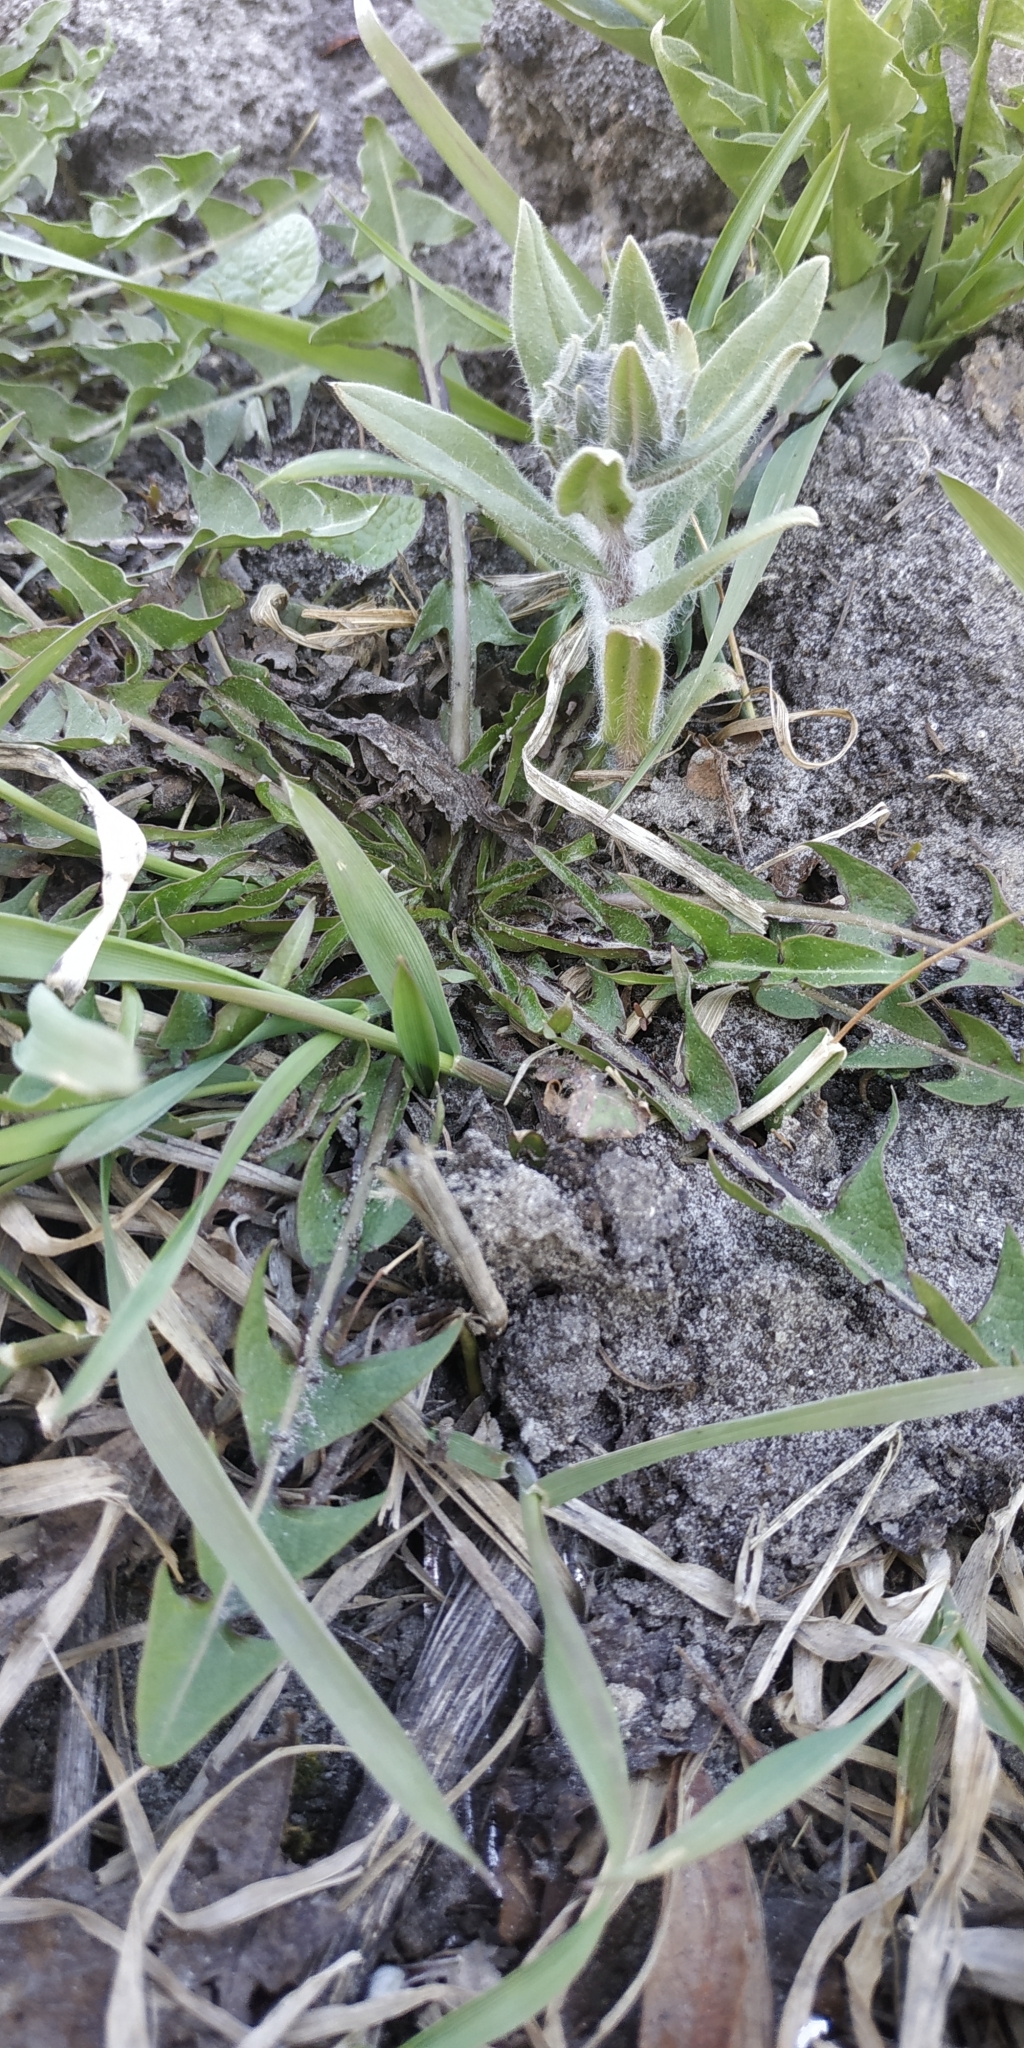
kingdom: Plantae
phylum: Tracheophyta
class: Magnoliopsida
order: Boraginales
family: Boraginaceae
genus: Nonea
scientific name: Nonea pulla
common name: Brown nonea
